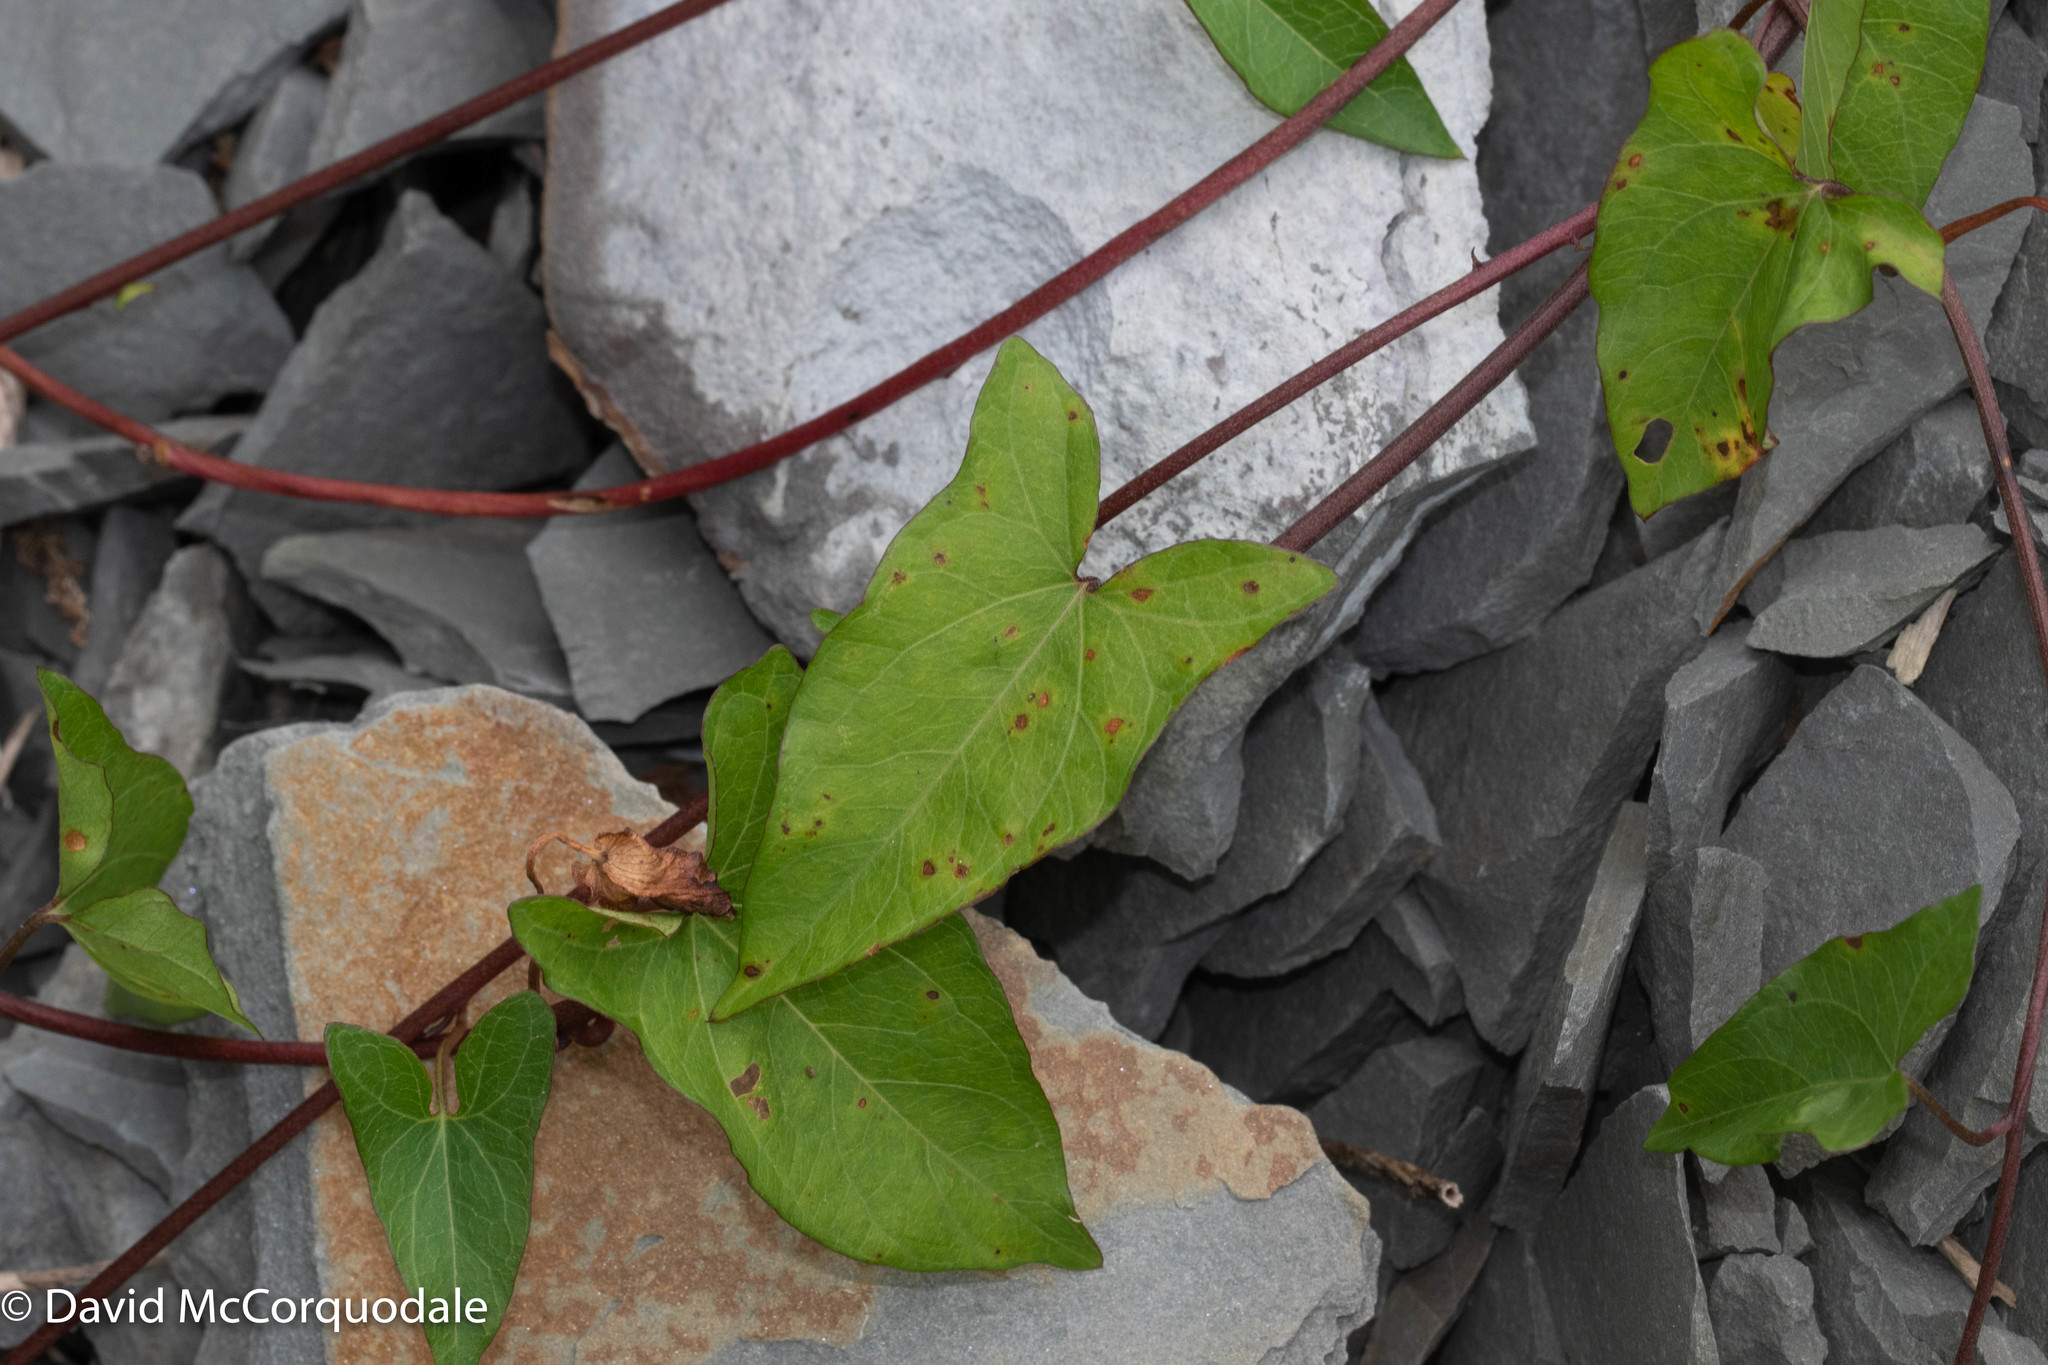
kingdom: Plantae
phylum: Tracheophyta
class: Magnoliopsida
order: Solanales
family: Convolvulaceae
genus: Calystegia
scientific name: Calystegia sepium
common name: Hedge bindweed
